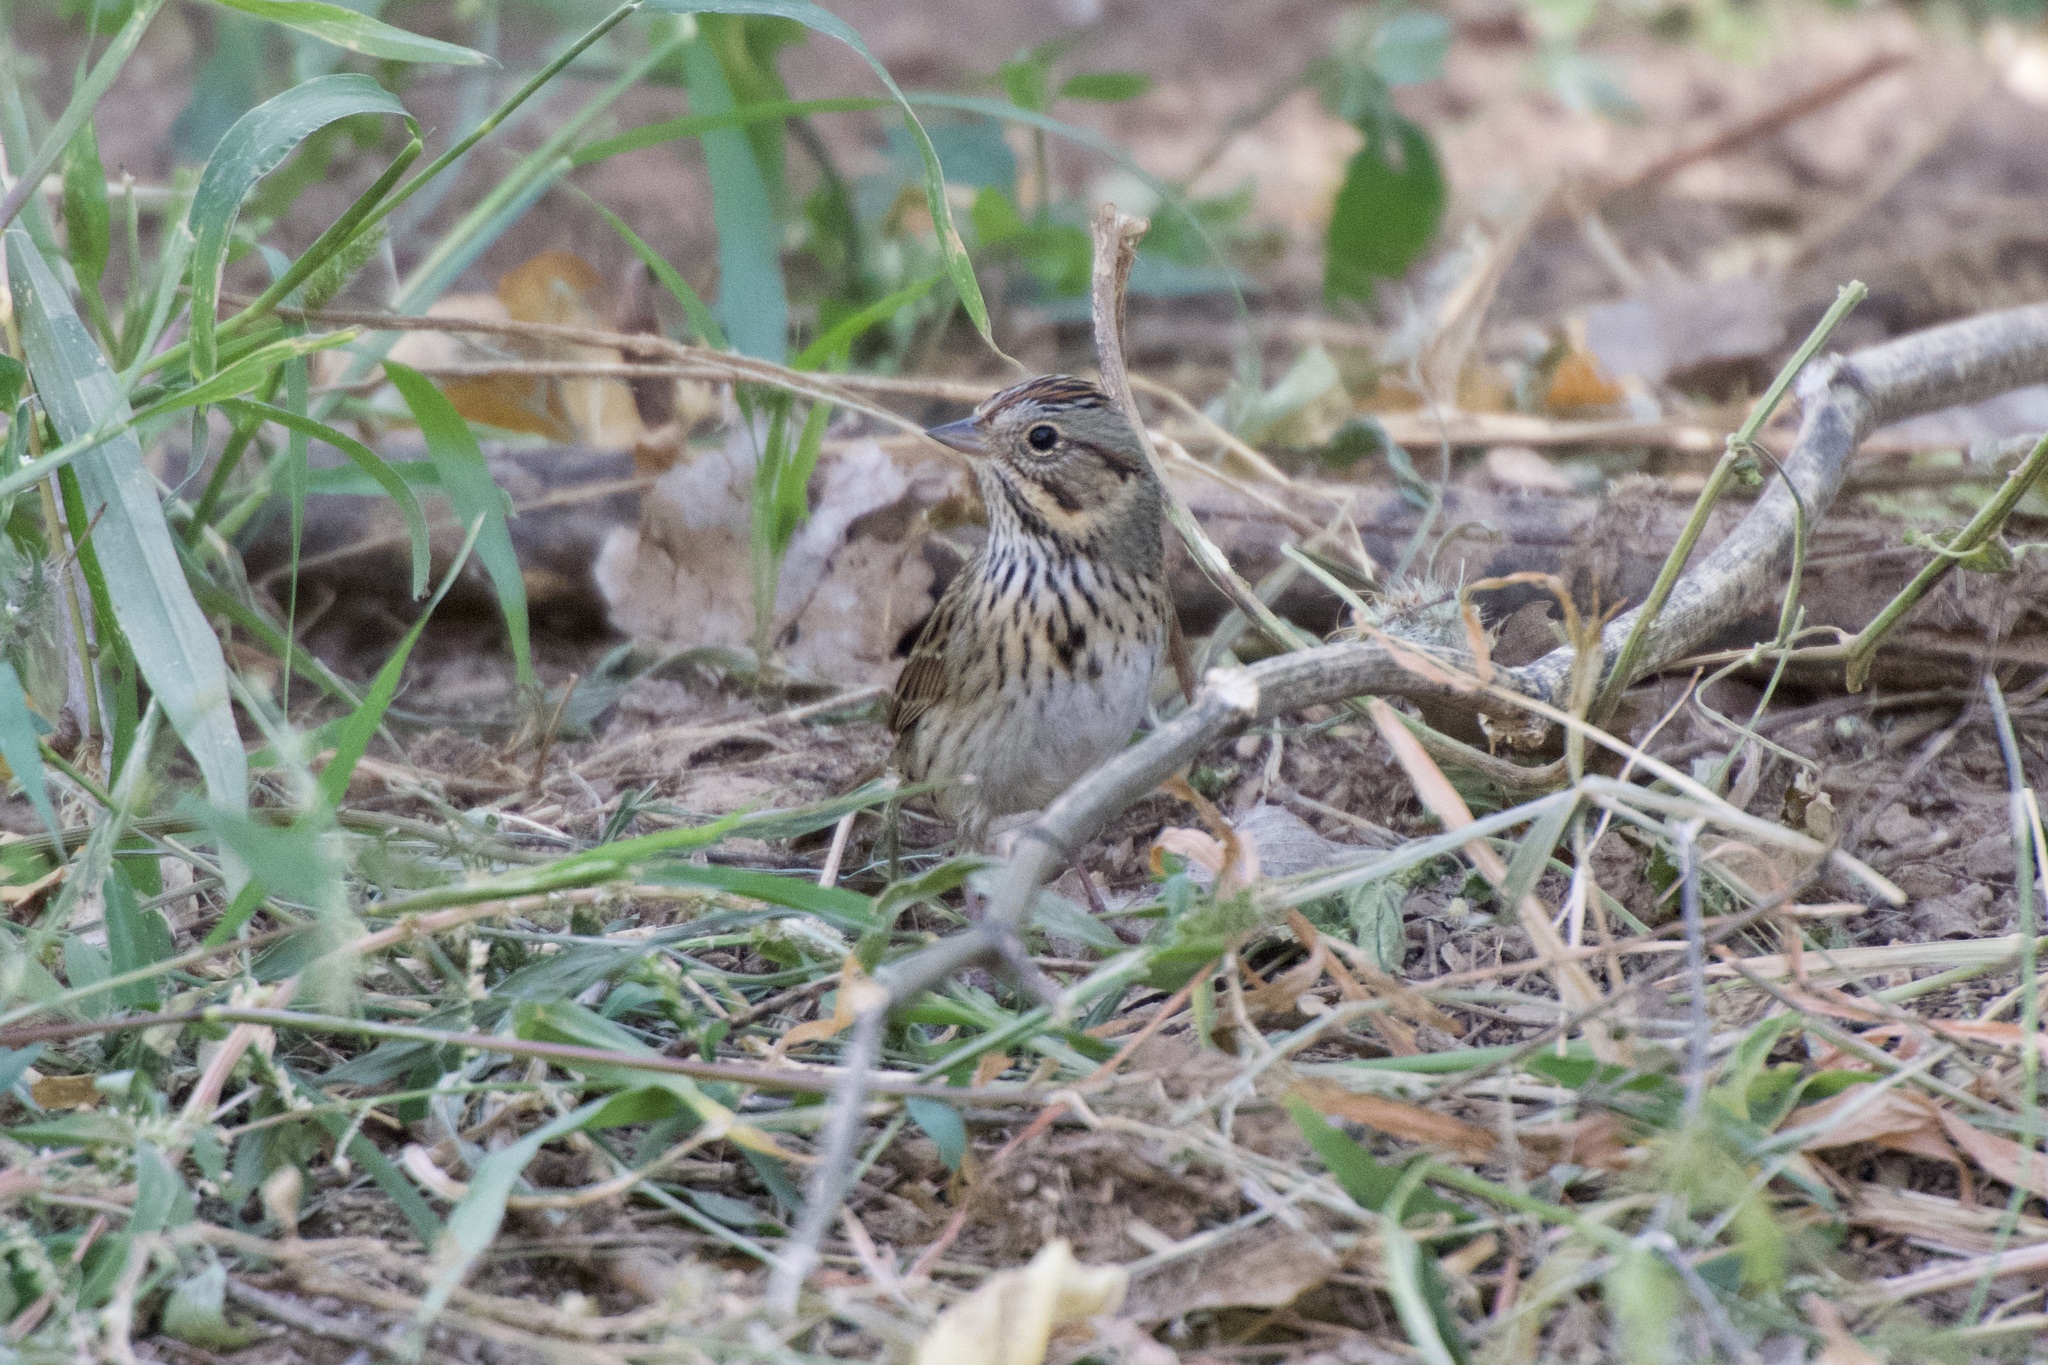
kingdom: Animalia
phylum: Chordata
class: Aves
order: Passeriformes
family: Passerellidae
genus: Melospiza
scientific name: Melospiza lincolnii
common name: Lincoln's sparrow
